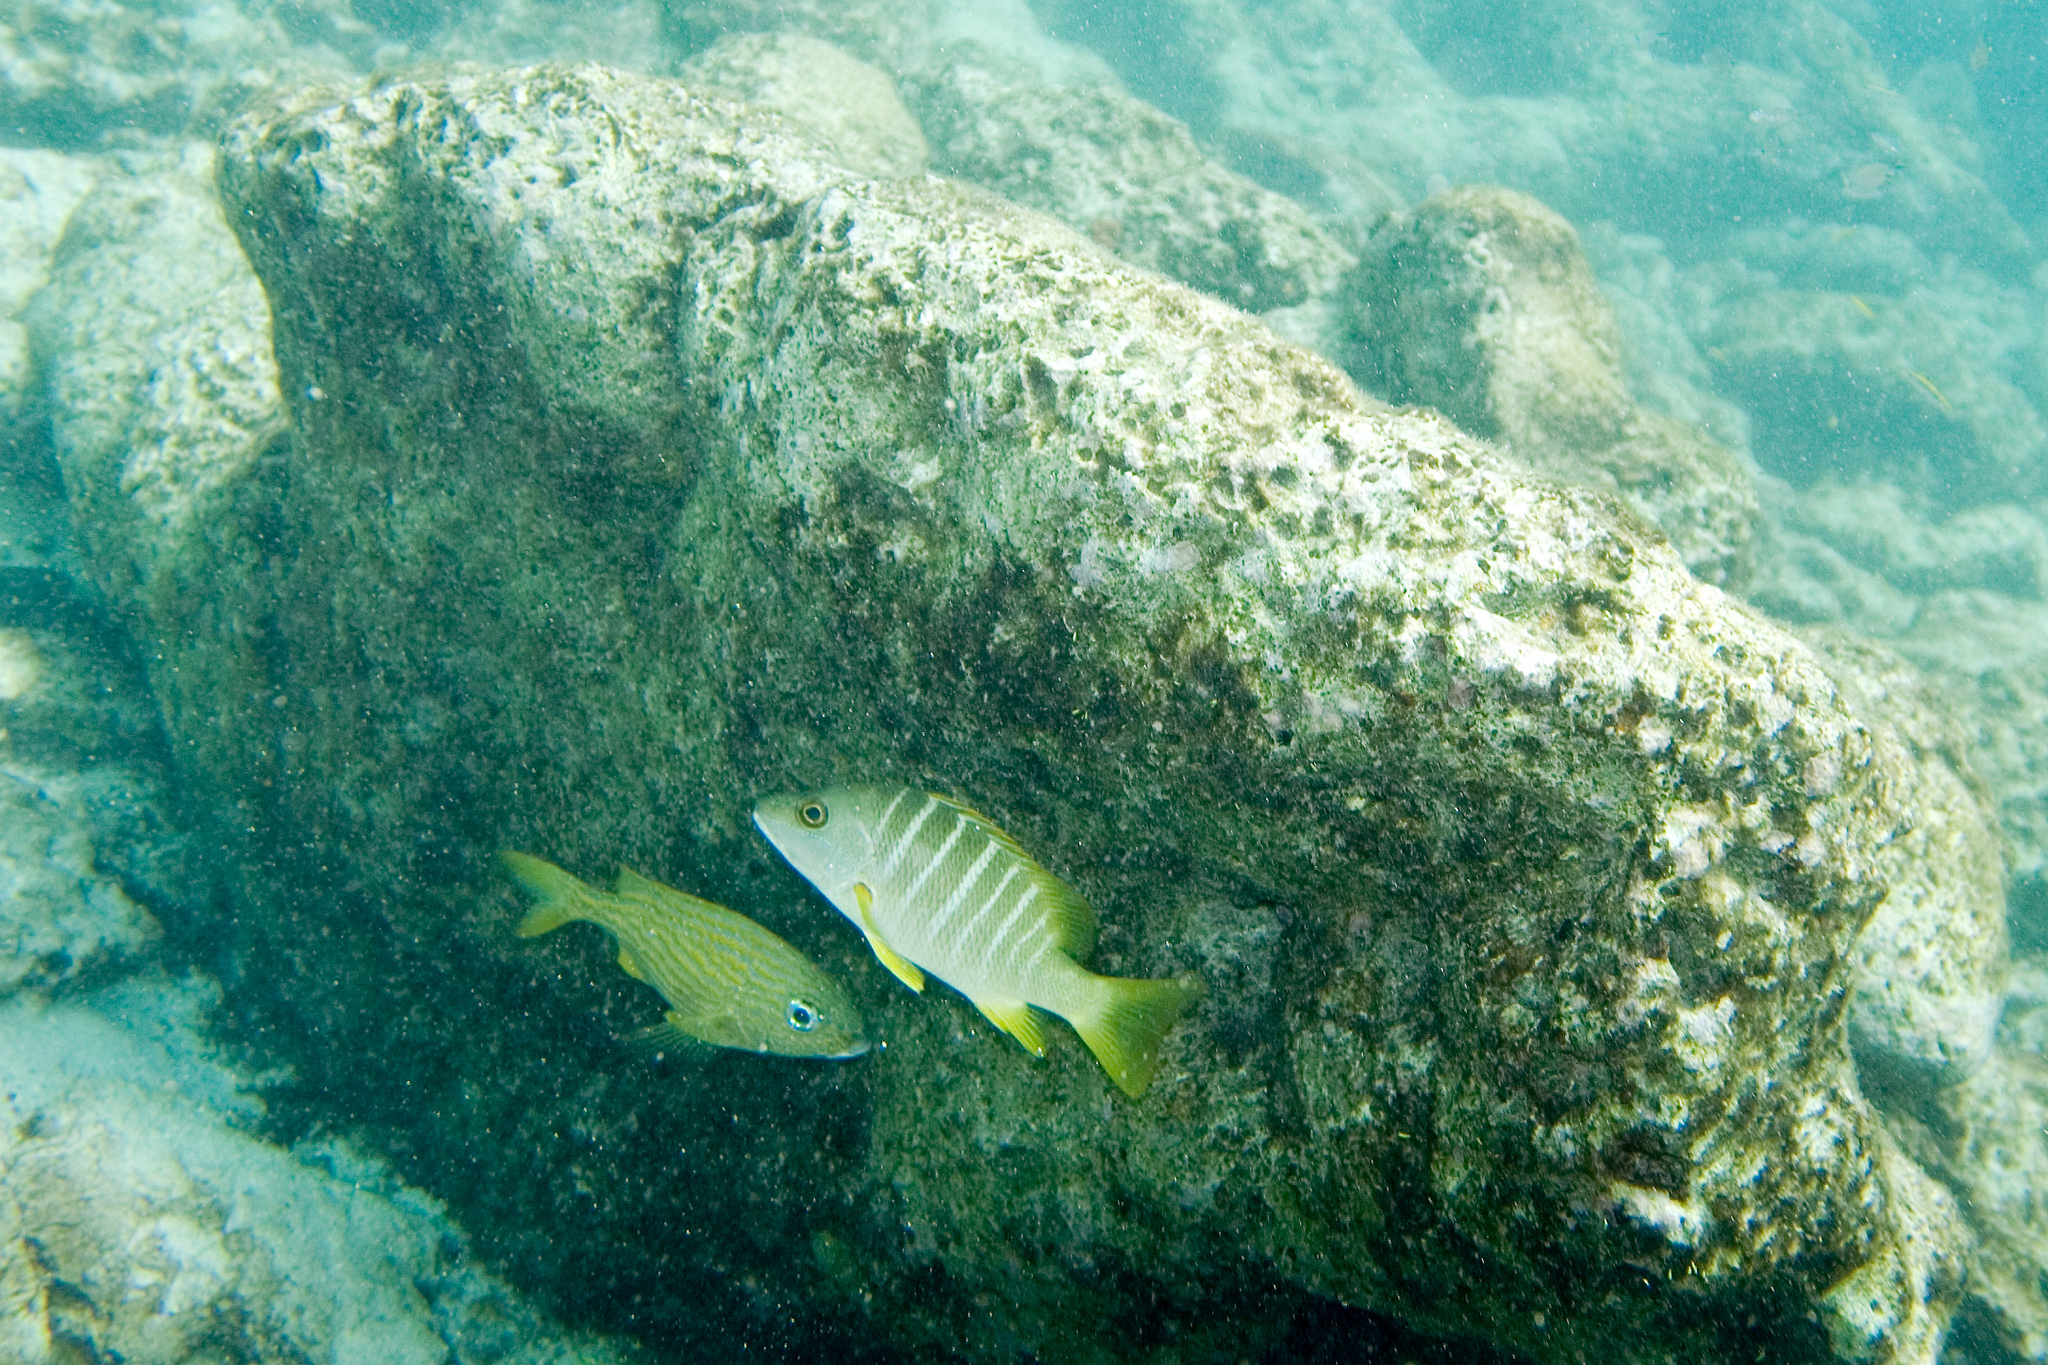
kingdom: Animalia
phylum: Chordata
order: Perciformes
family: Haemulidae
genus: Haemulon
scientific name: Haemulon flavolineatum
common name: French grunt
